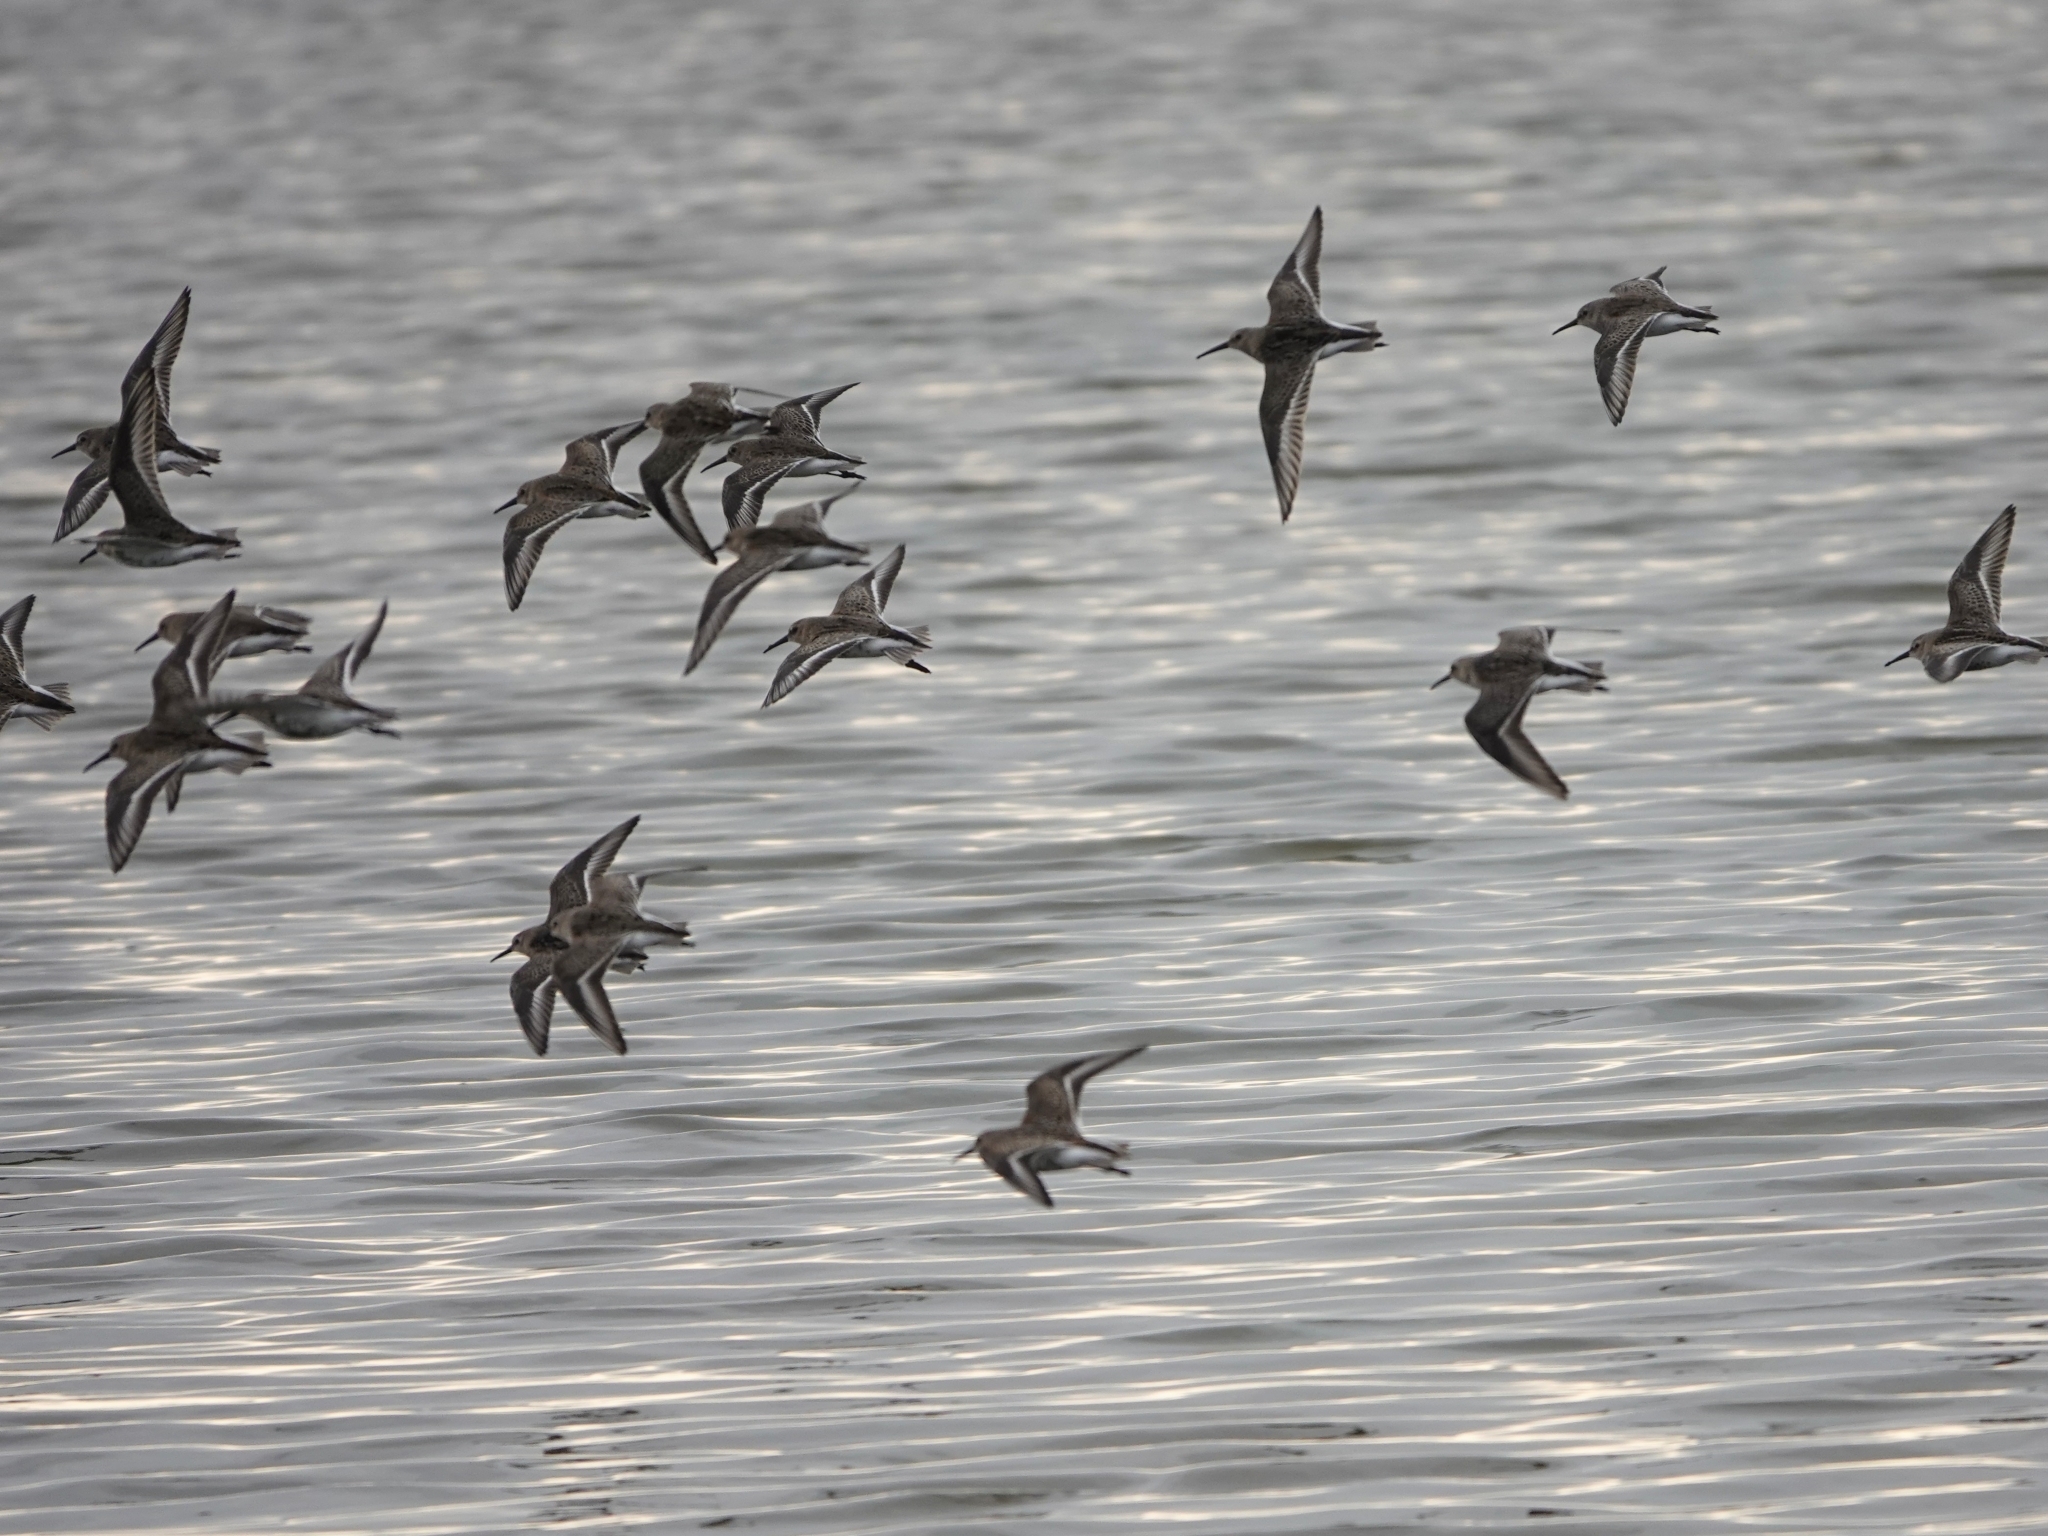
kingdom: Animalia
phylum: Chordata
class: Aves
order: Charadriiformes
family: Scolopacidae
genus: Calidris
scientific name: Calidris alpina
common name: Dunlin
